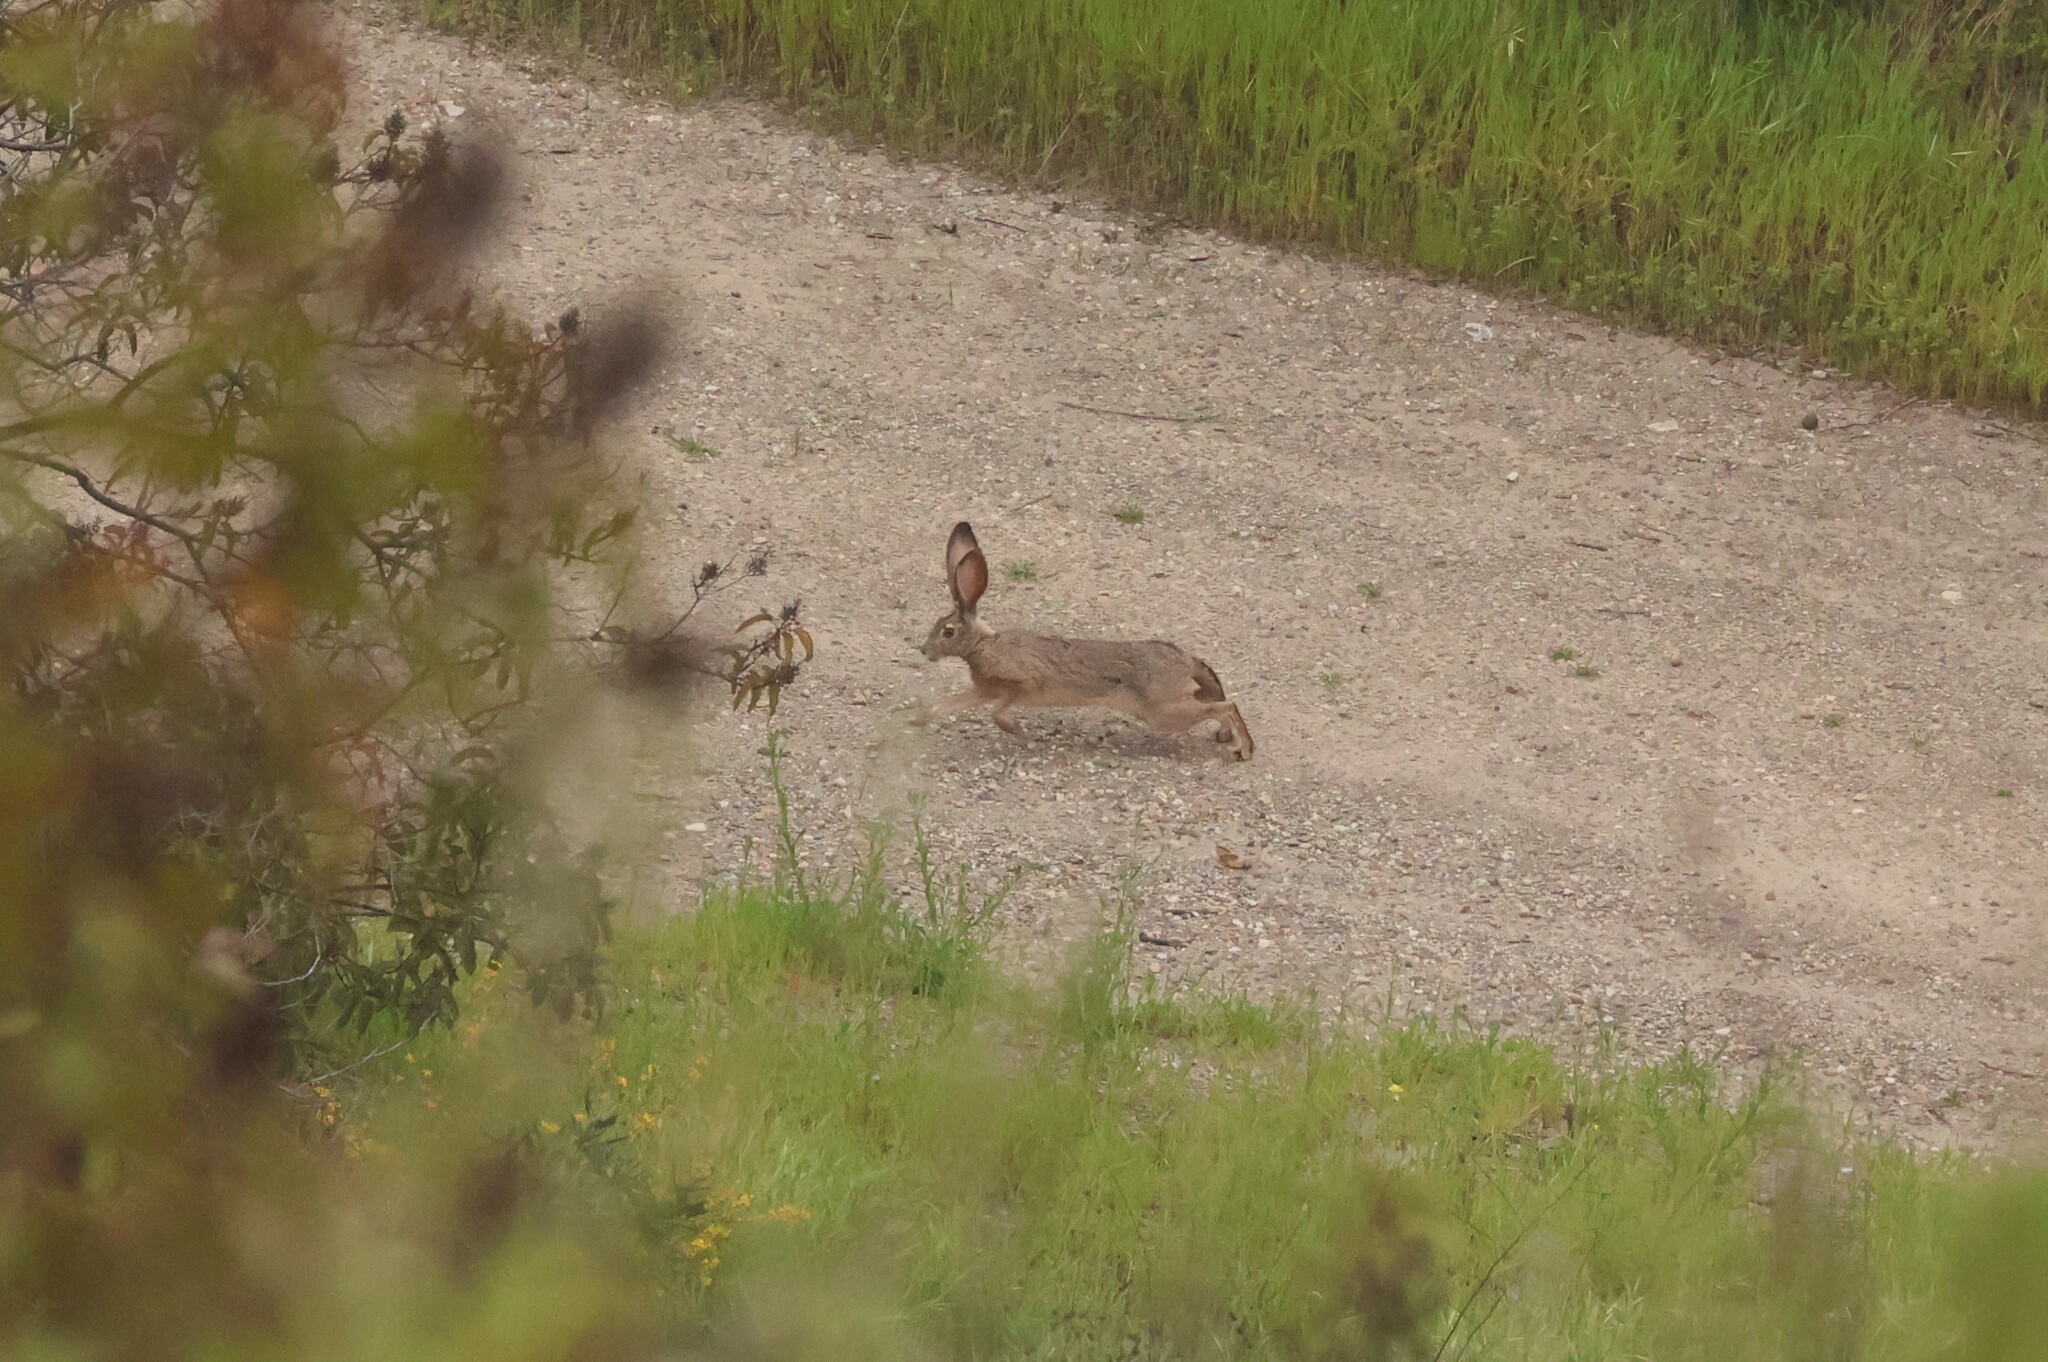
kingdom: Animalia
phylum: Chordata
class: Mammalia
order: Lagomorpha
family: Leporidae
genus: Lepus
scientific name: Lepus californicus
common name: Black-tailed jackrabbit
